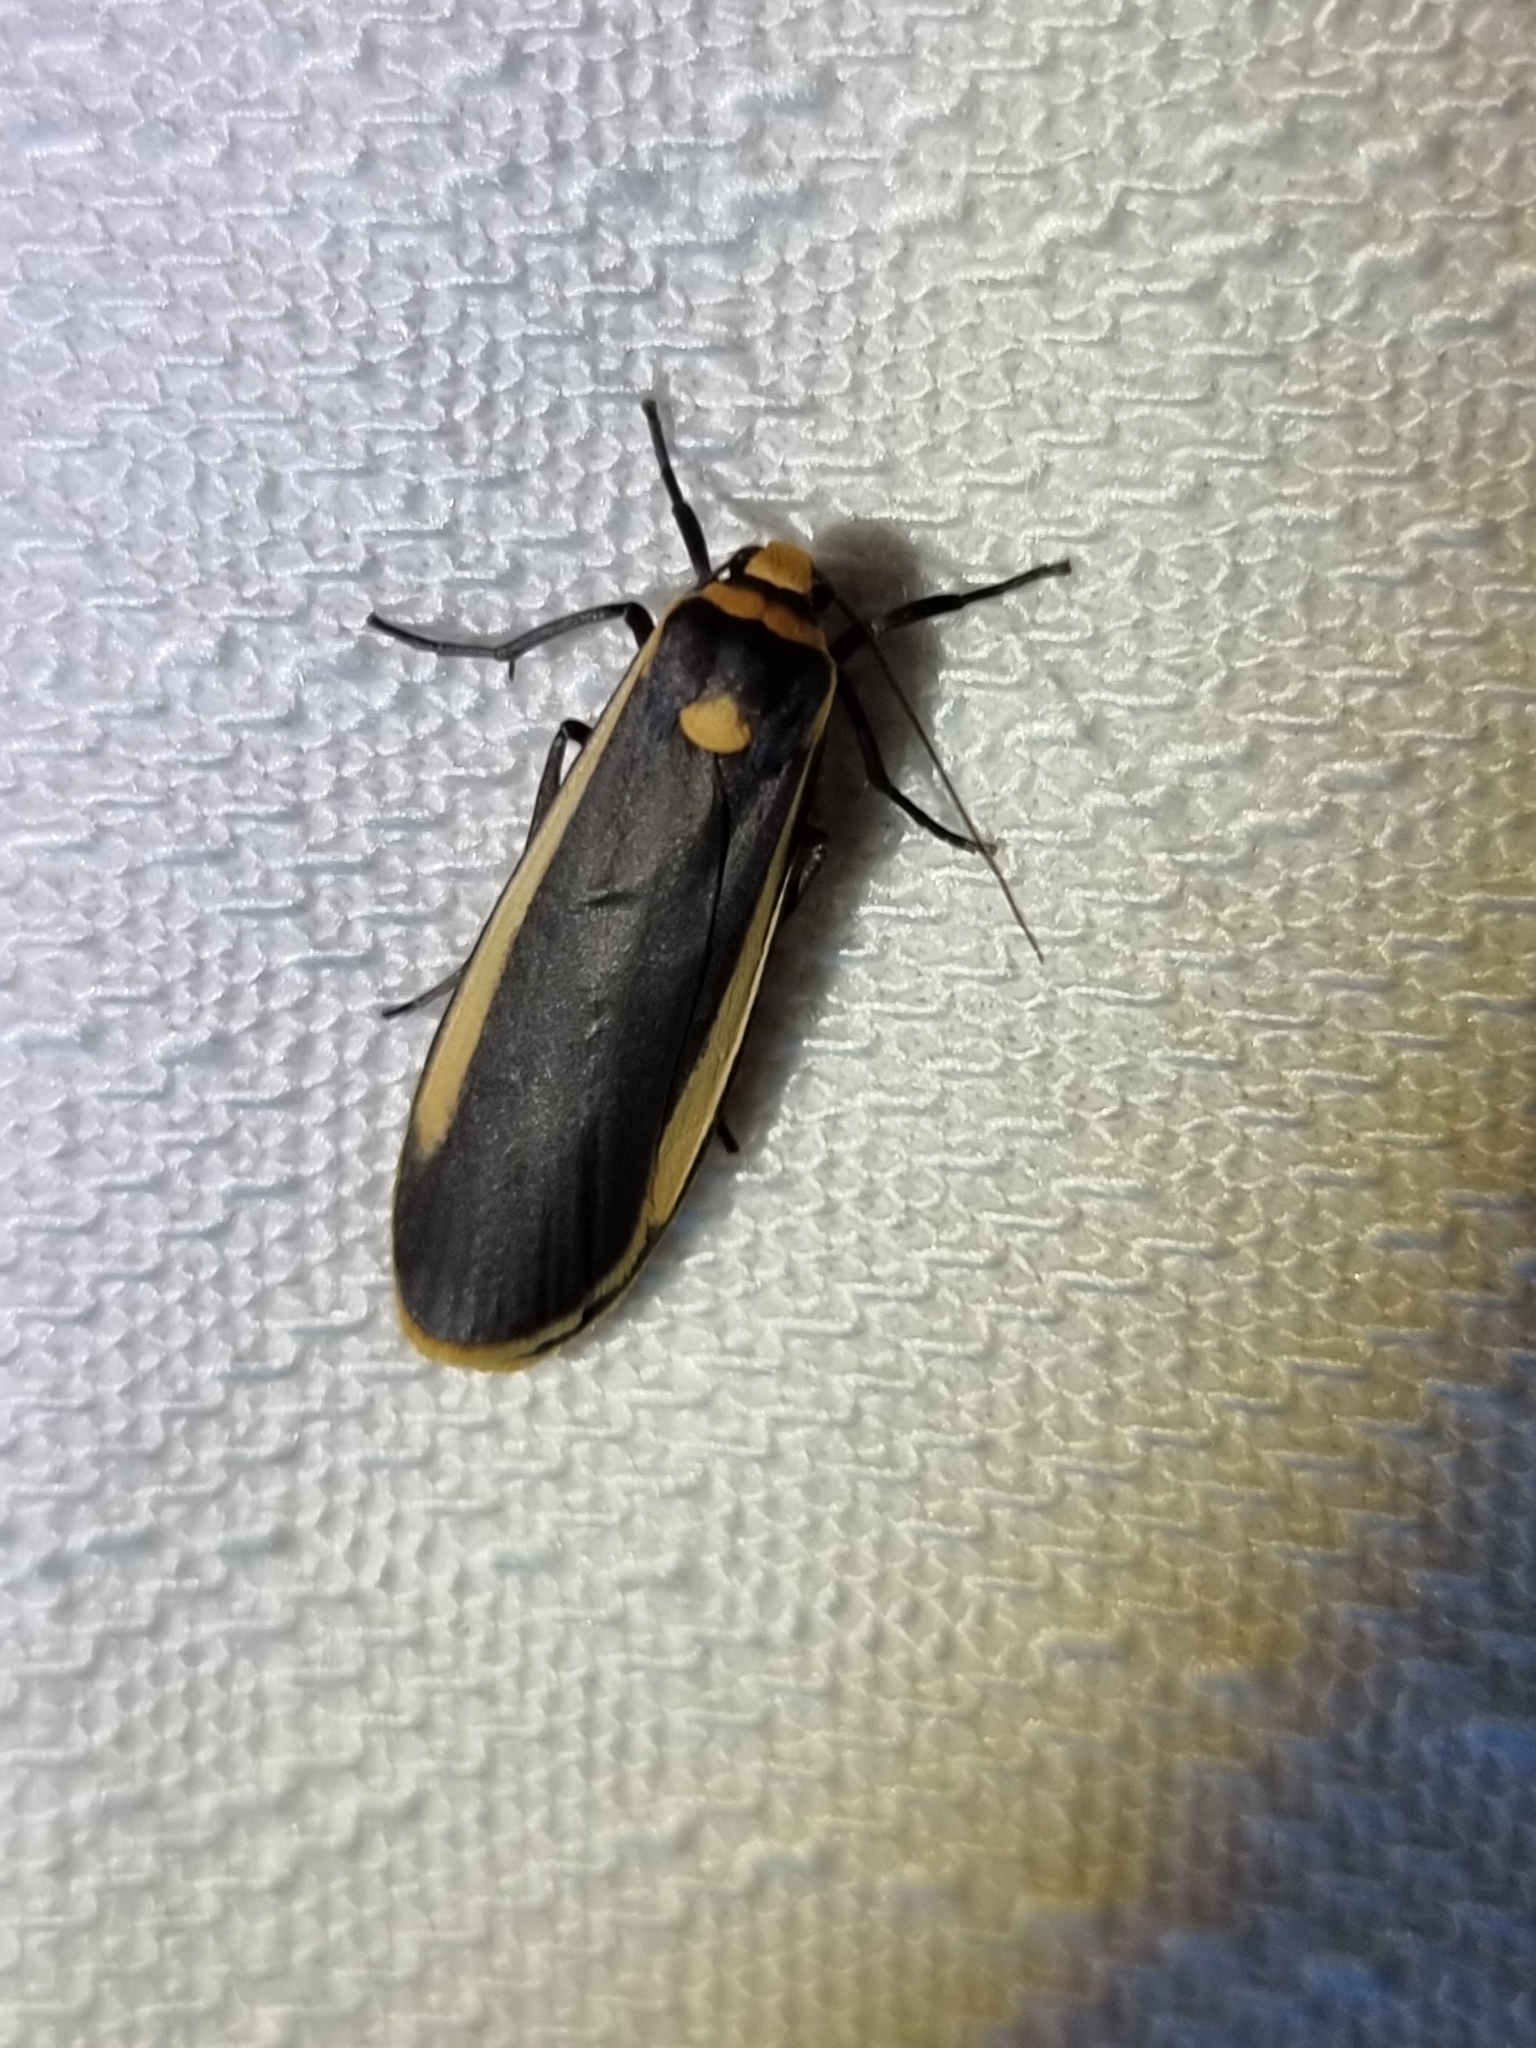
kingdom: Animalia
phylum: Arthropoda
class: Insecta
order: Lepidoptera
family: Erebidae
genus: Brunia
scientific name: Brunia replana
